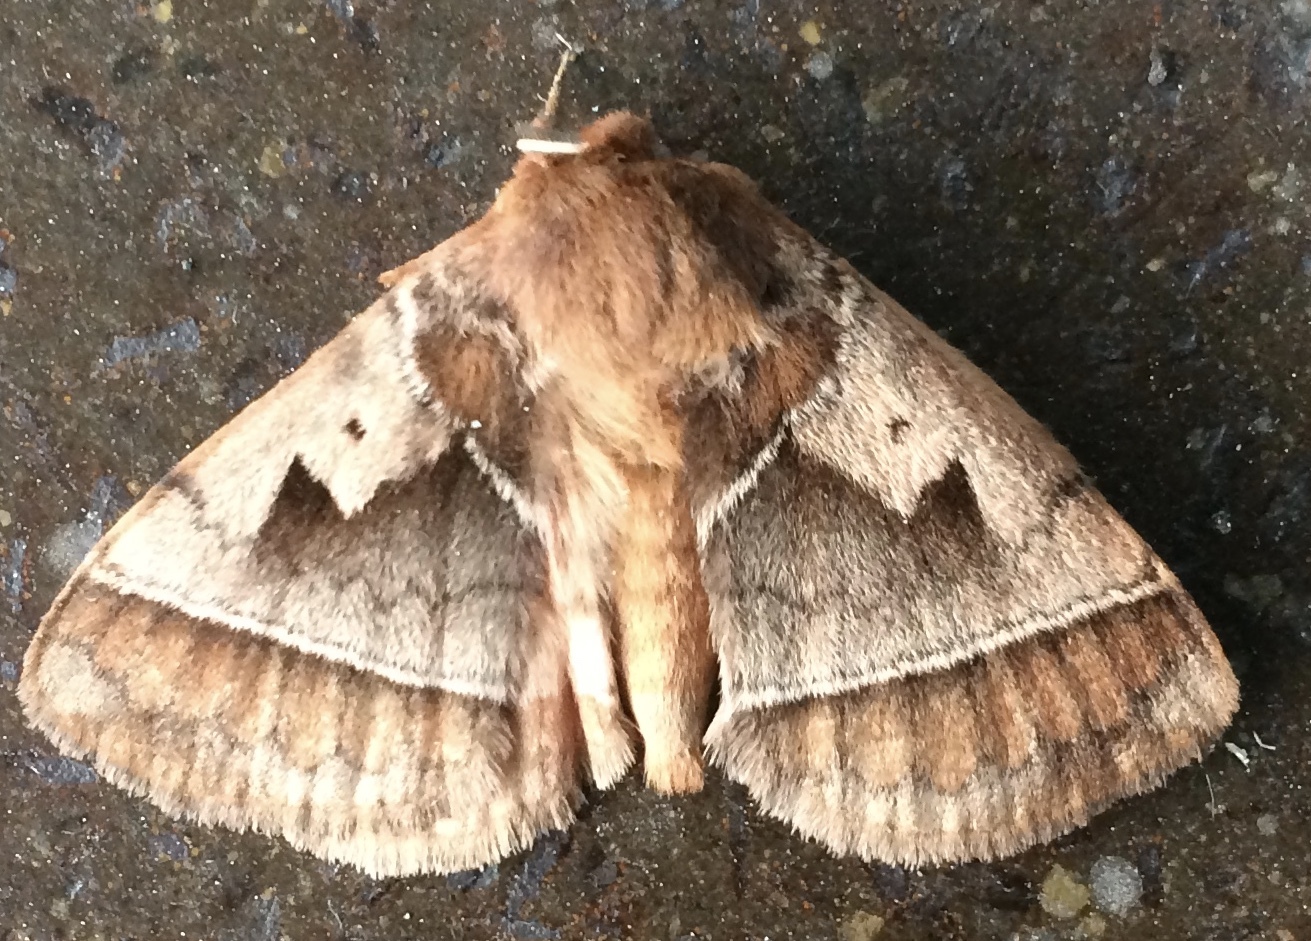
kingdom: Animalia
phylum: Arthropoda
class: Insecta
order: Lepidoptera
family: Eupterotidae
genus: Poloma
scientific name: Poloma angulata
